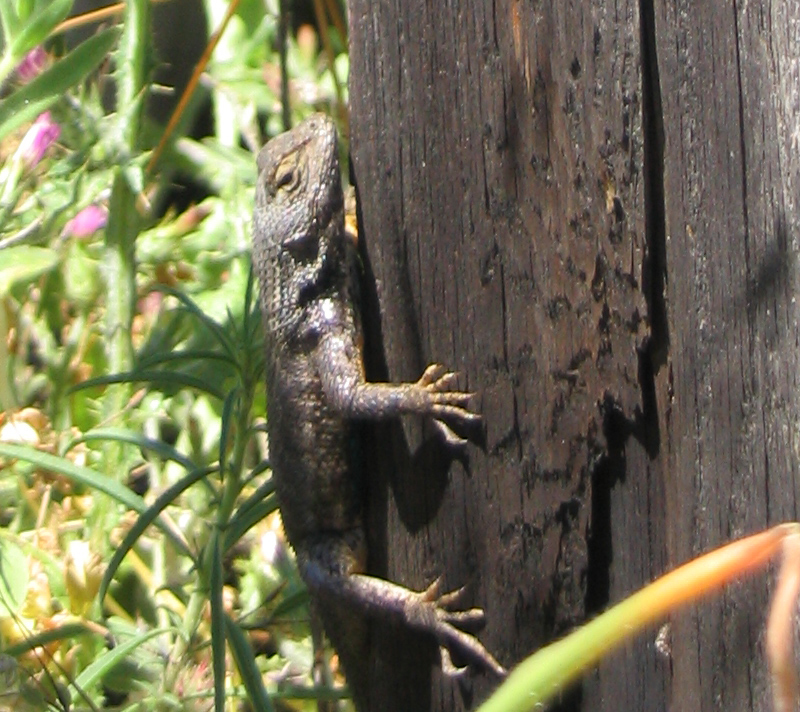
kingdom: Animalia
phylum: Chordata
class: Squamata
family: Phrynosomatidae
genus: Sceloporus
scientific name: Sceloporus occidentalis
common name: Western fence lizard
